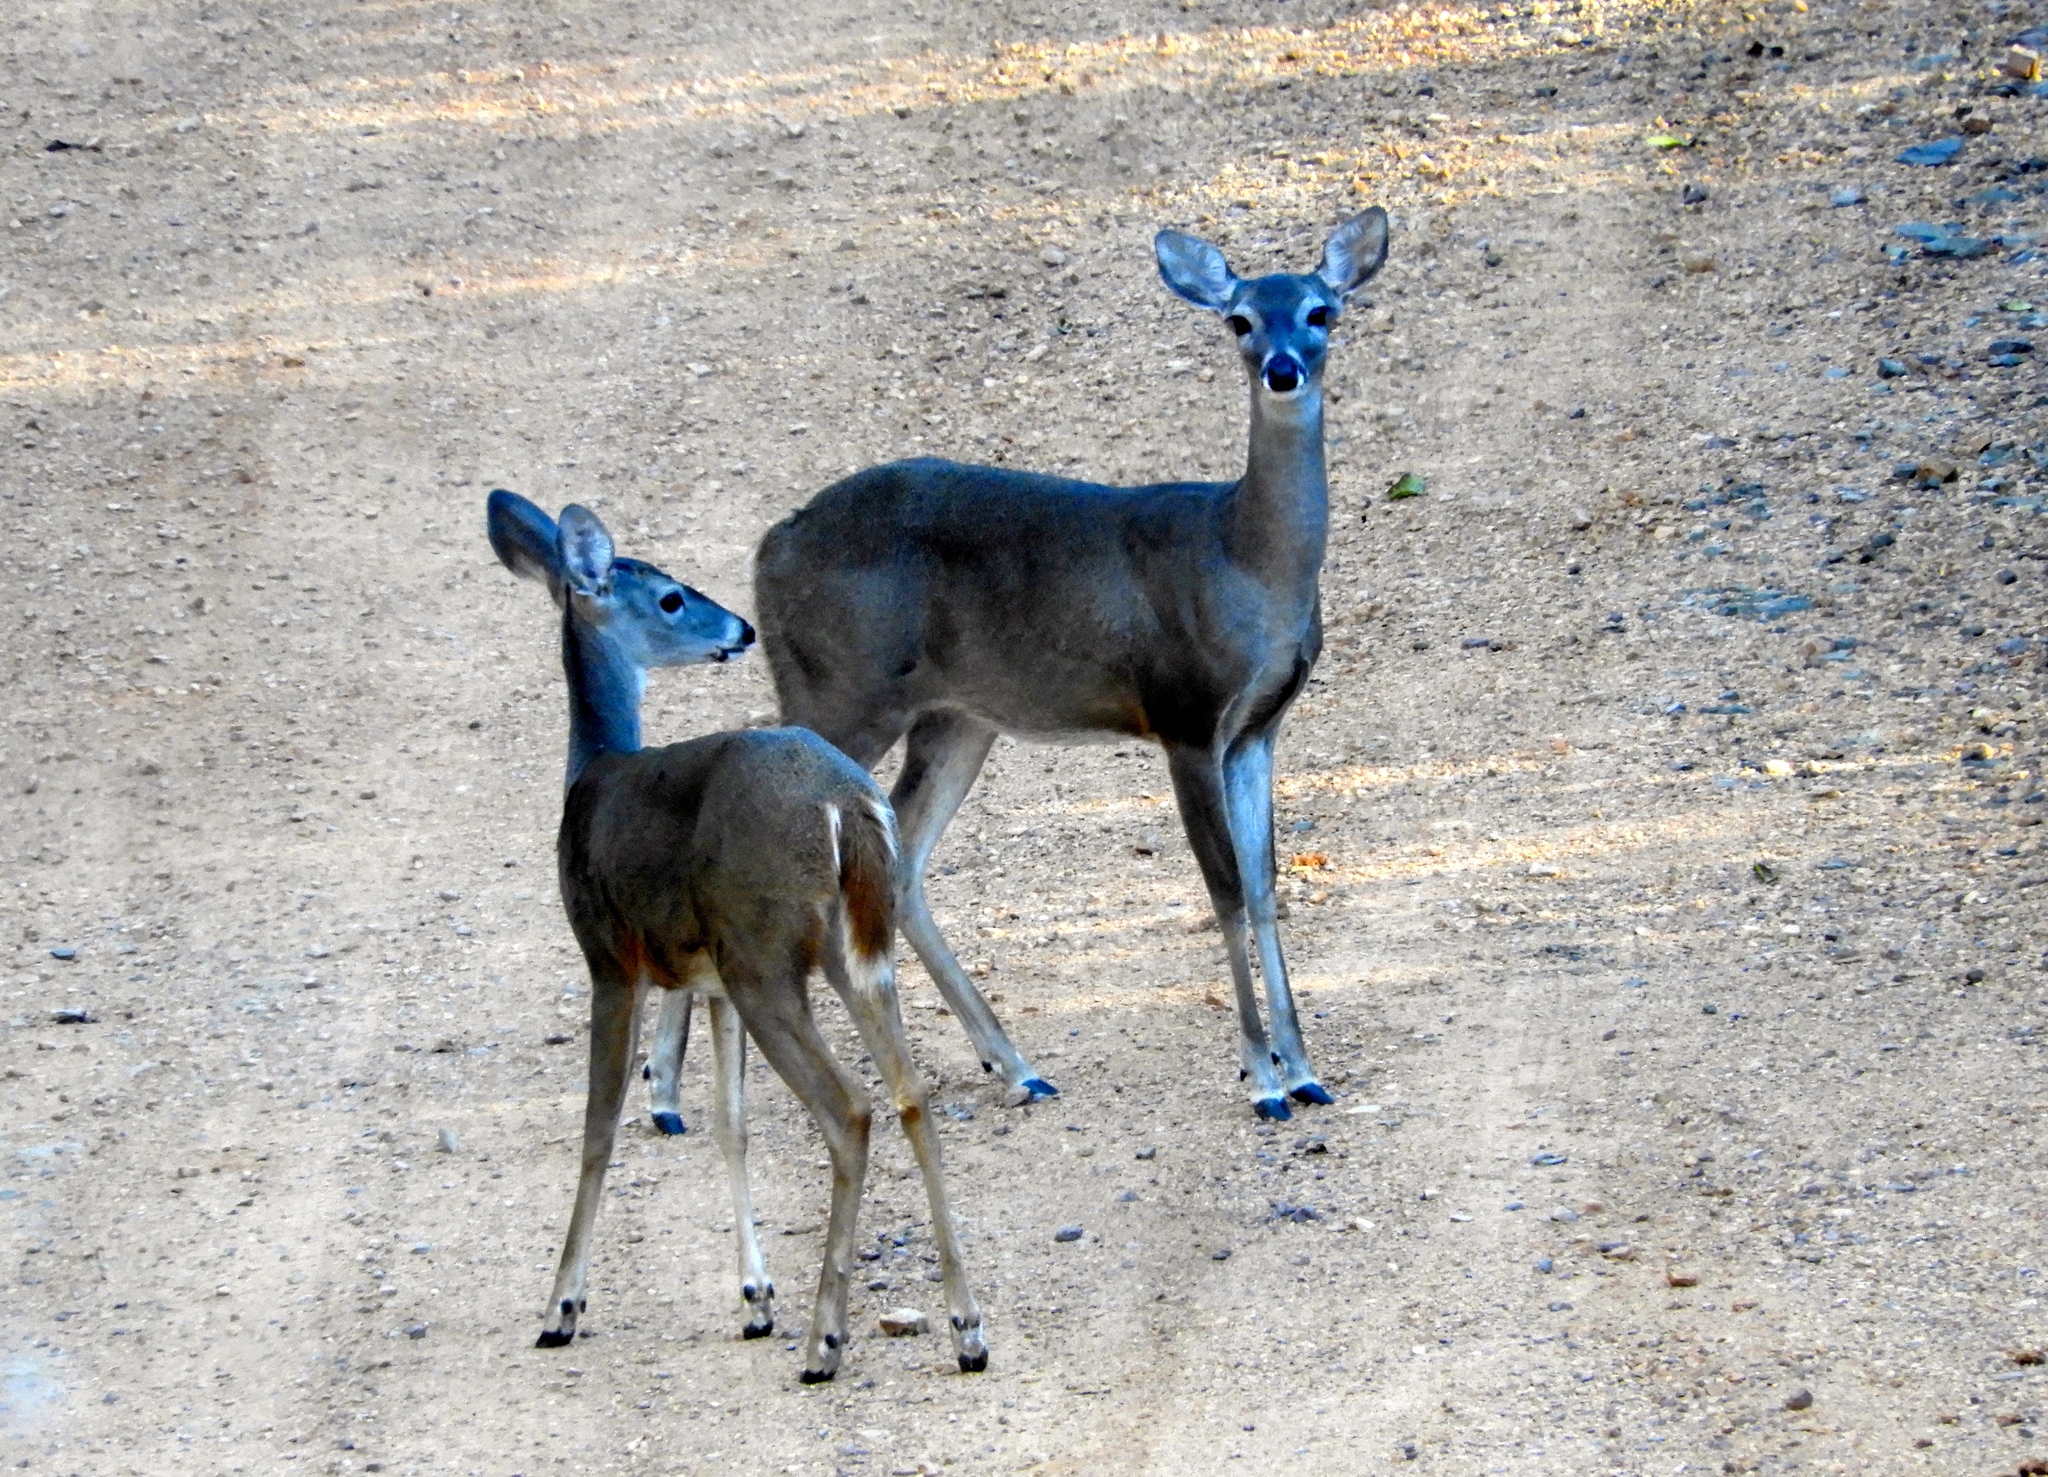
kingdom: Animalia
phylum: Chordata
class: Mammalia
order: Artiodactyla
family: Cervidae
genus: Odocoileus
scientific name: Odocoileus virginianus
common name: White-tailed deer
